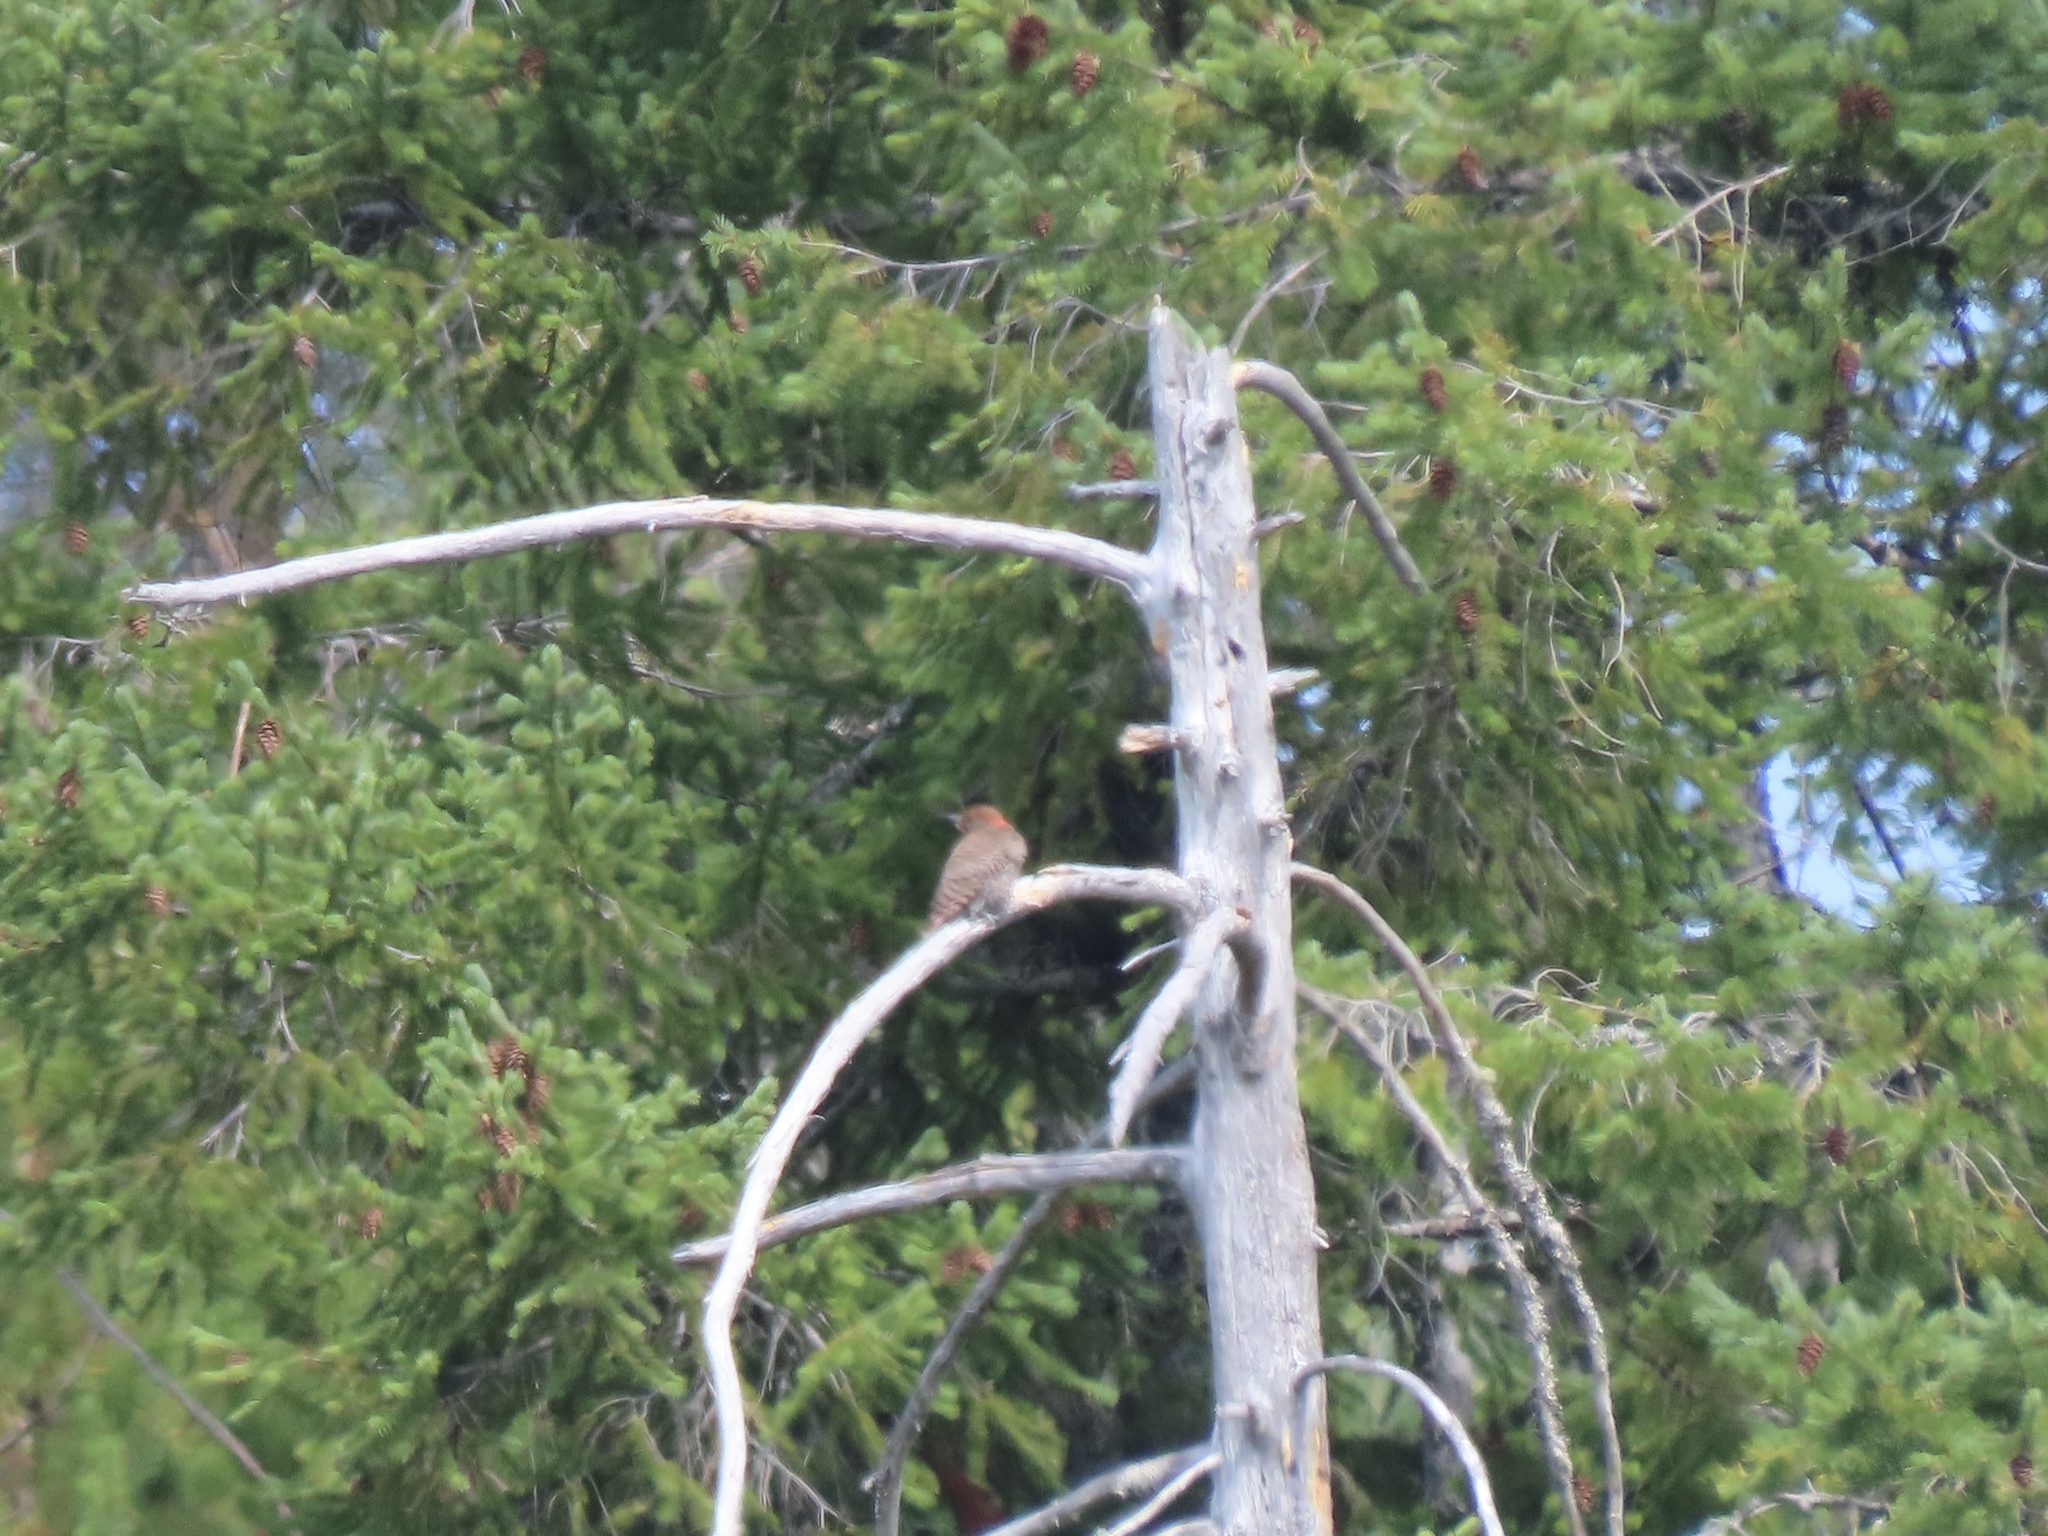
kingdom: Animalia
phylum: Chordata
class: Aves
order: Piciformes
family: Picidae
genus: Colaptes
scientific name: Colaptes auratus
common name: Northern flicker
